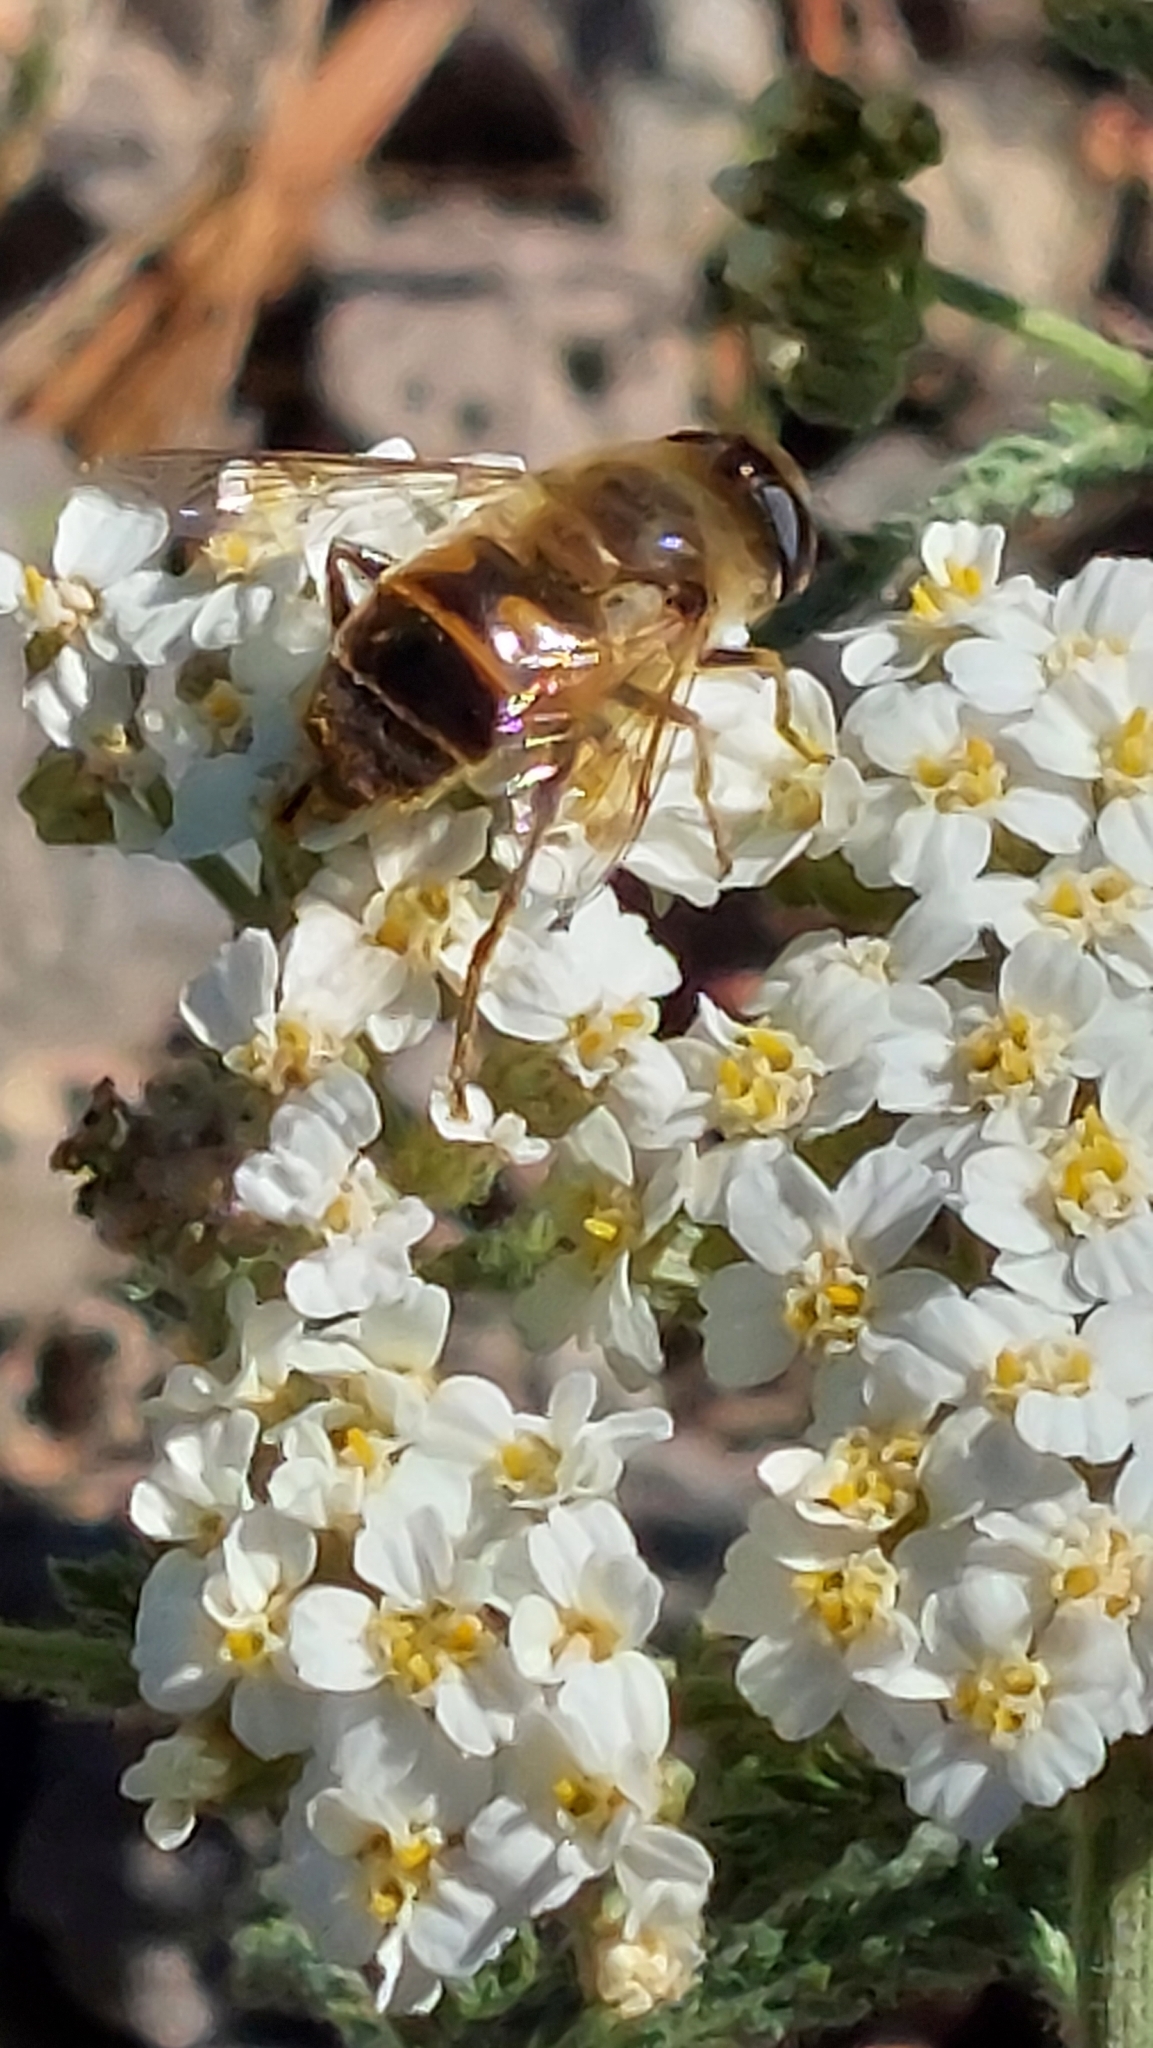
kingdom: Animalia
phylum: Arthropoda
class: Insecta
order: Diptera
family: Syrphidae
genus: Eristalis
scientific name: Eristalis tenax
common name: Drone fly
